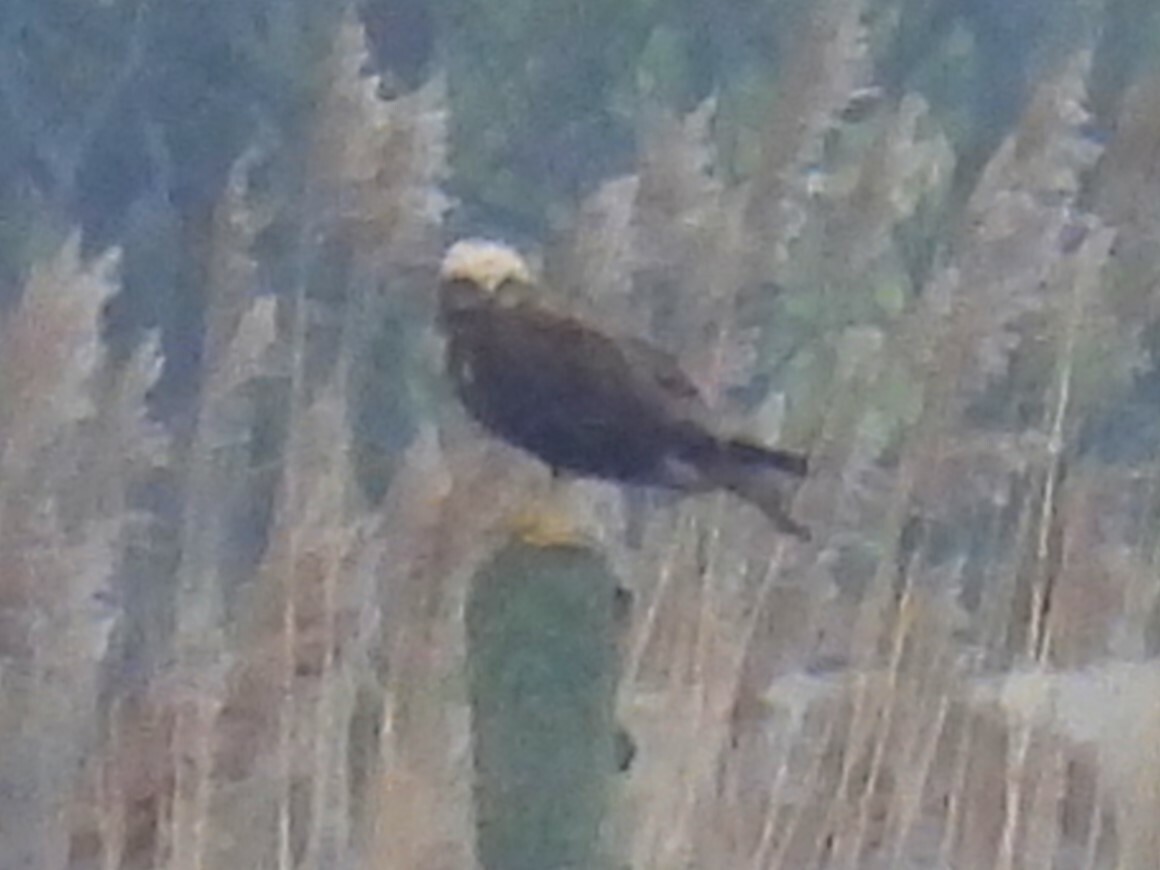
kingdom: Animalia
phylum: Chordata
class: Aves
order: Accipitriformes
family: Accipitridae
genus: Circus
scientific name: Circus aeruginosus
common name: Western marsh harrier
